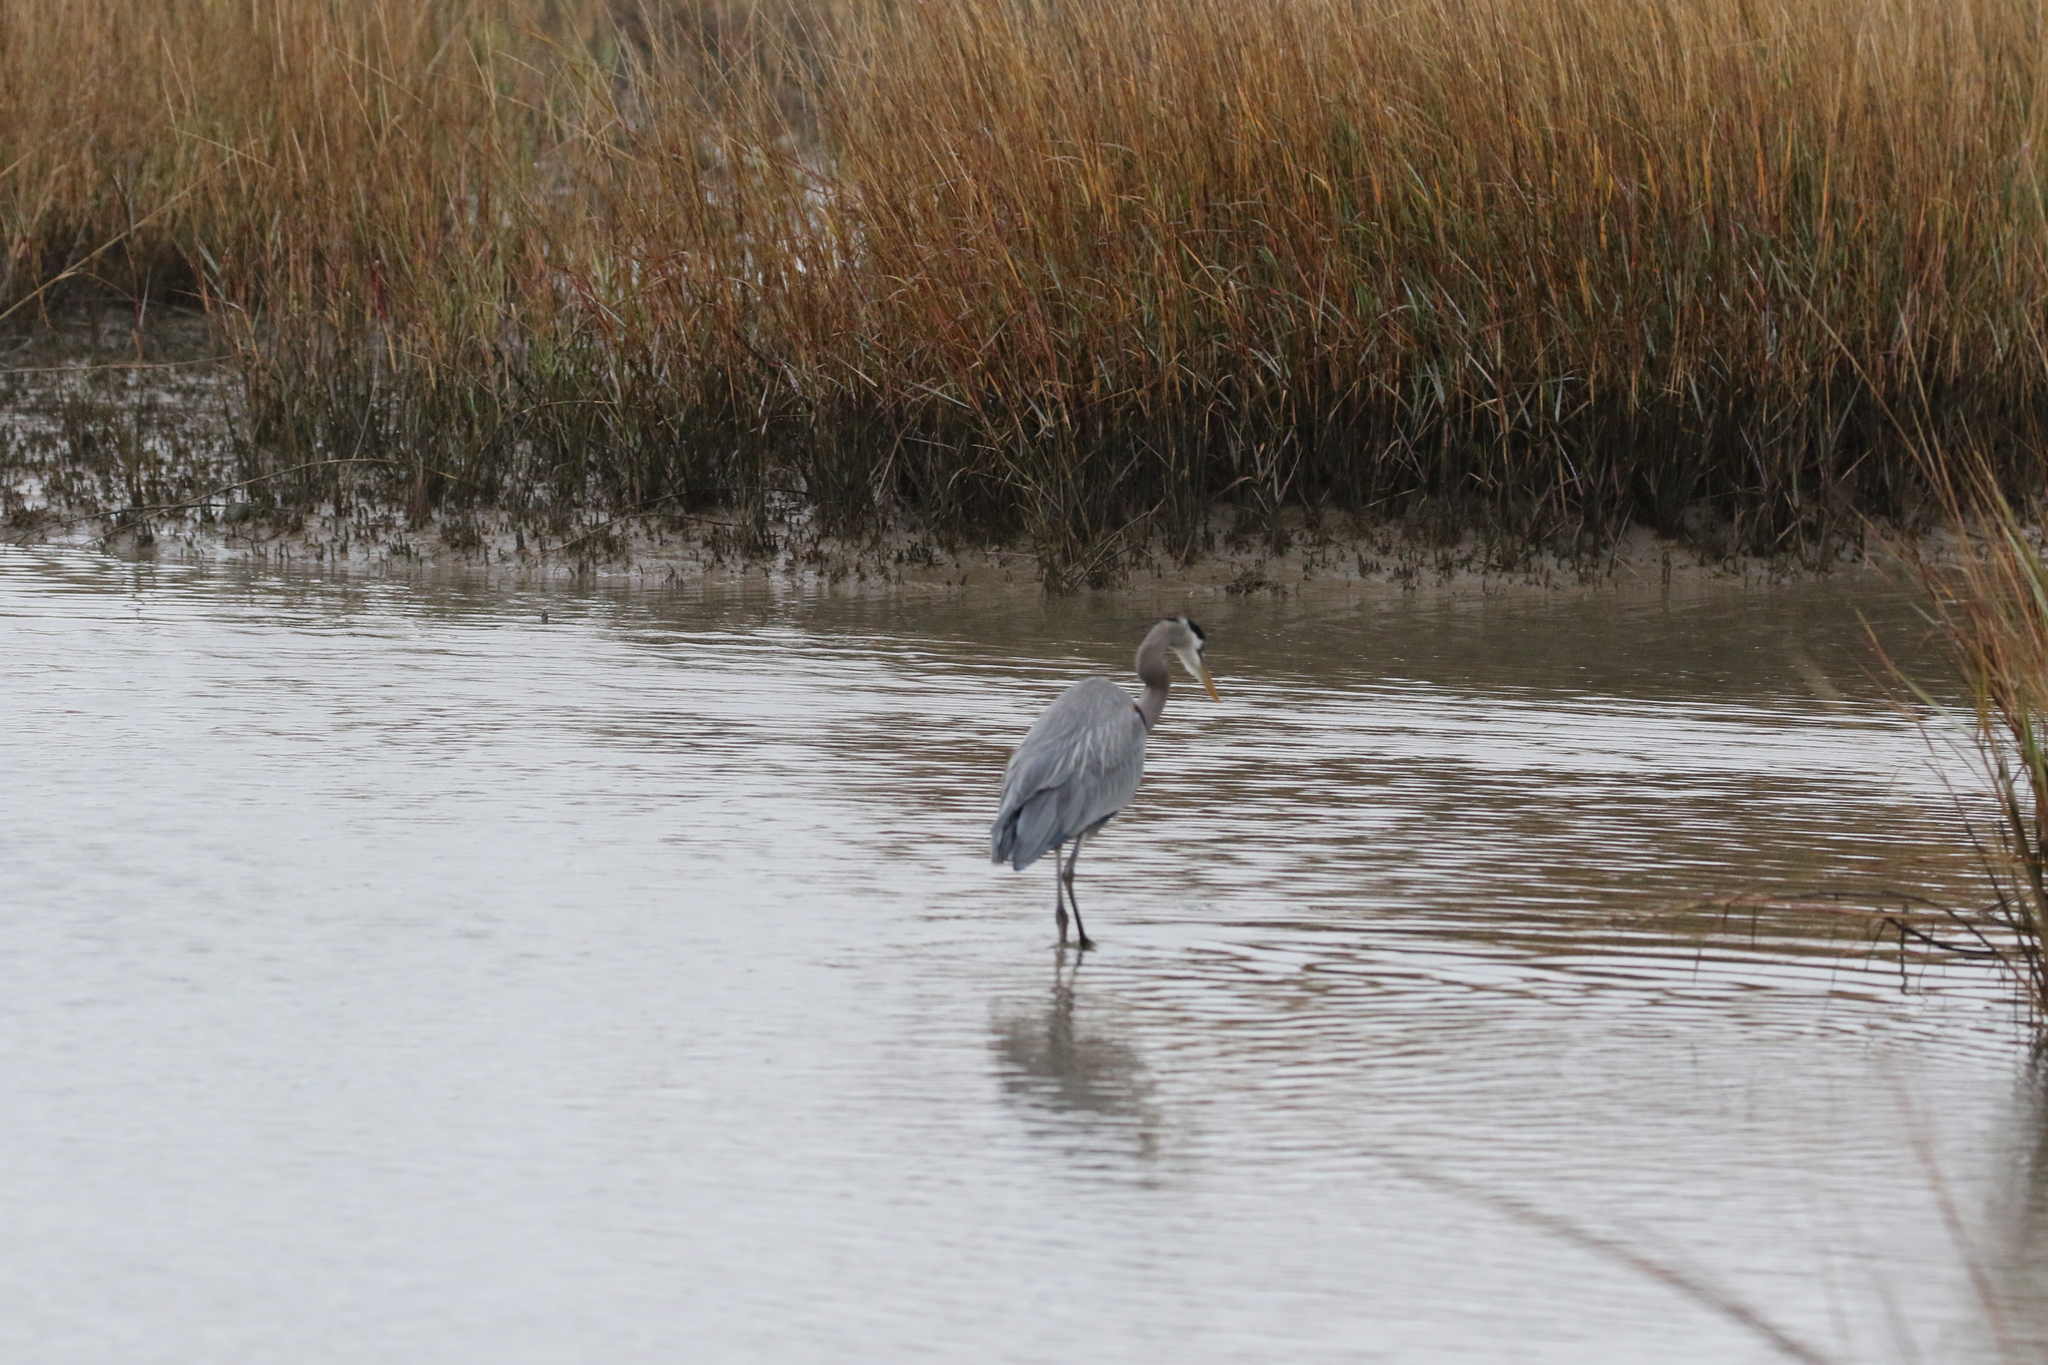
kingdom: Animalia
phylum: Chordata
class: Aves
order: Pelecaniformes
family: Ardeidae
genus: Ardea
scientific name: Ardea herodias
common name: Great blue heron
